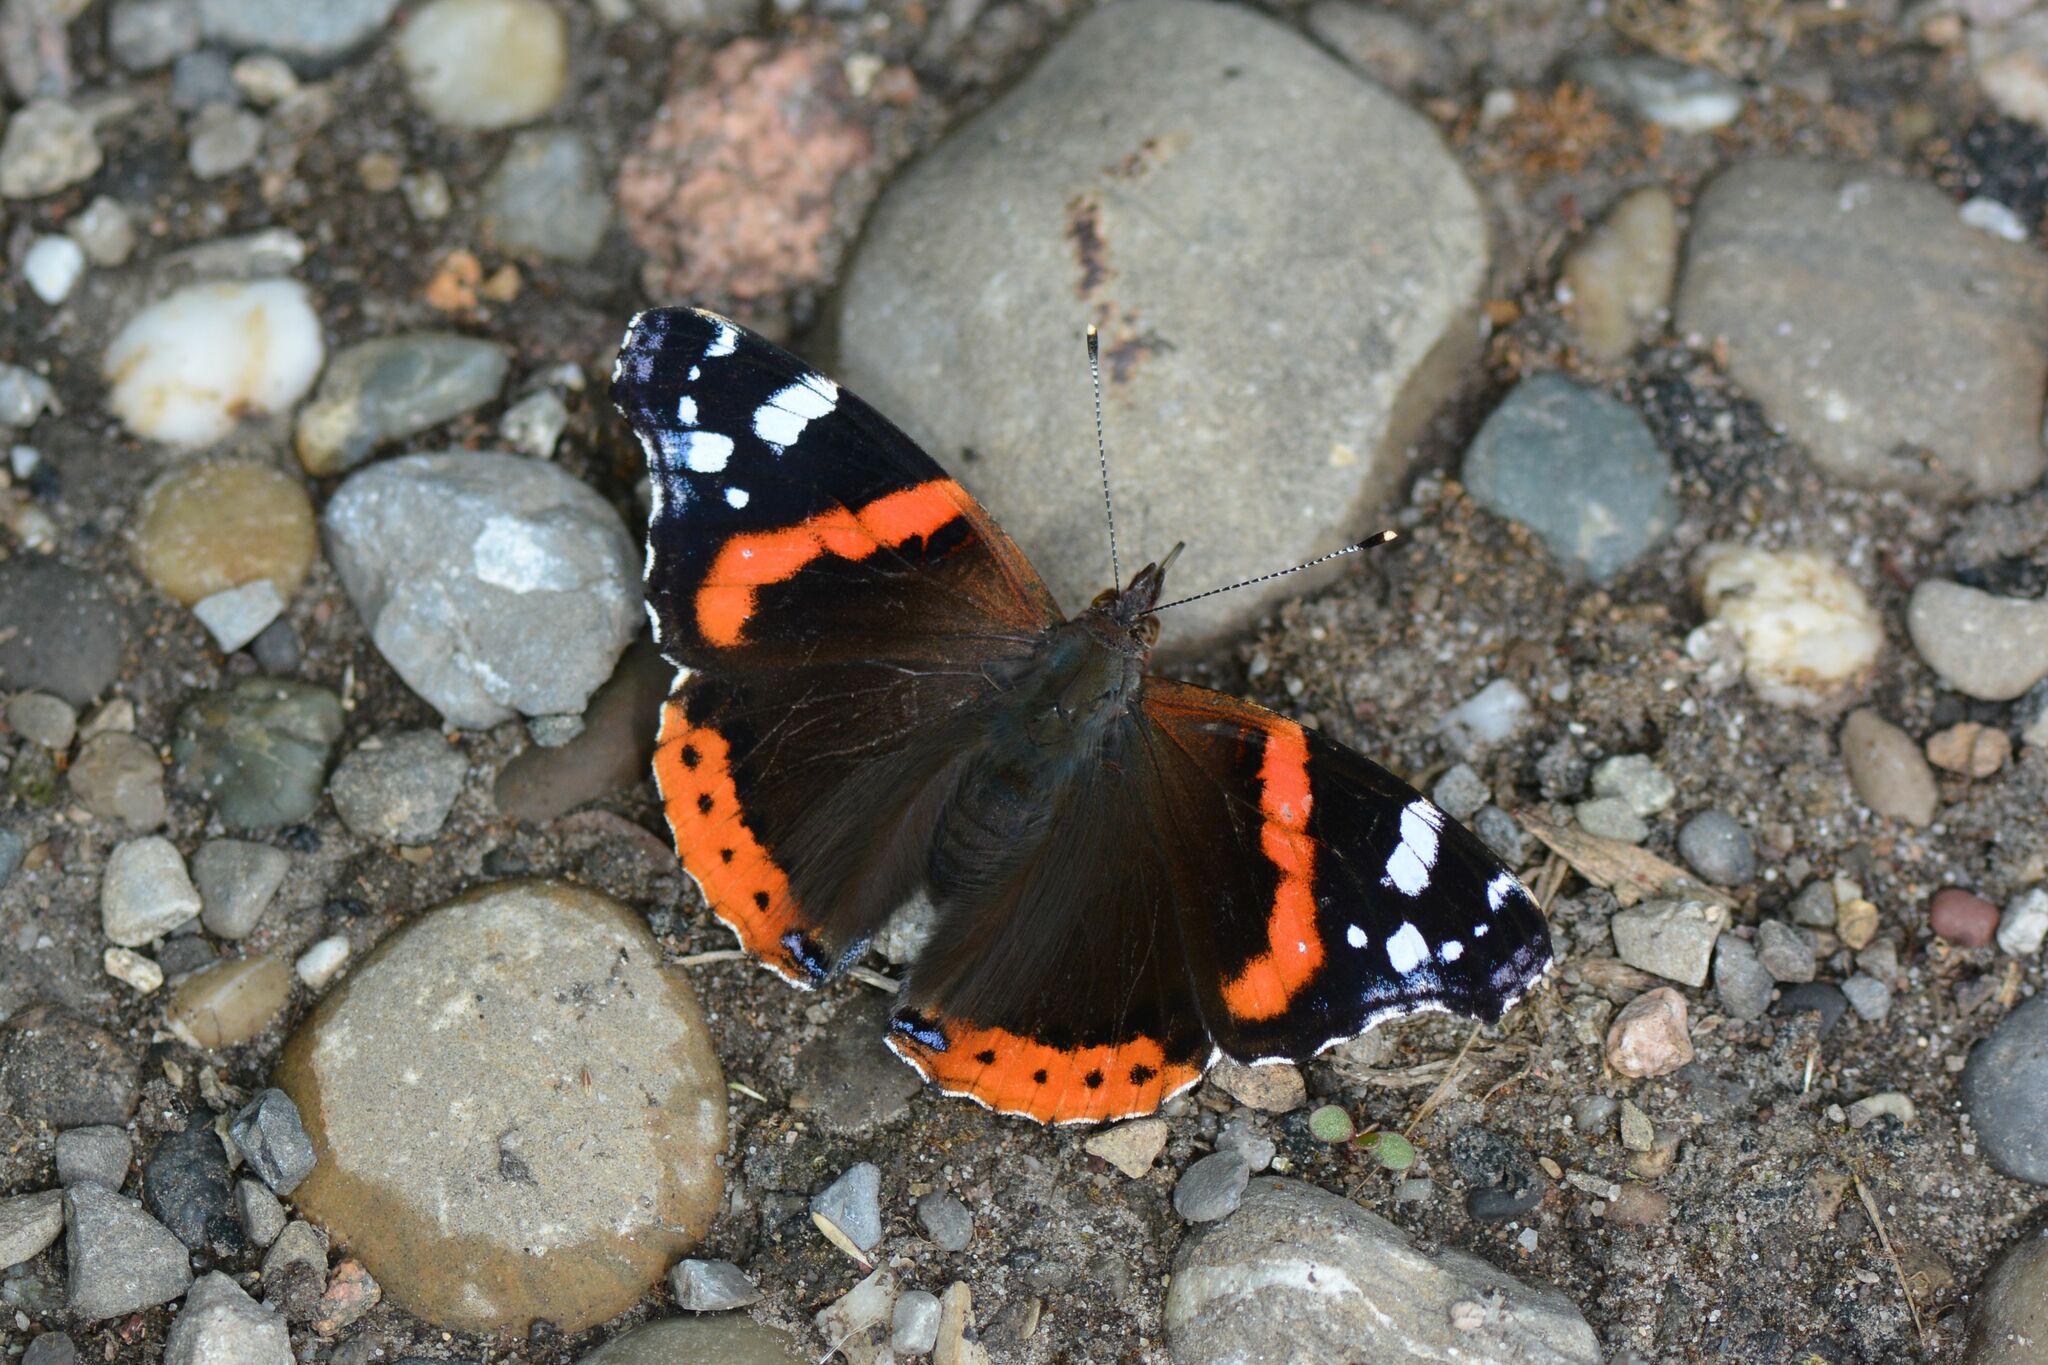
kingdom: Animalia
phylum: Arthropoda
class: Insecta
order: Lepidoptera
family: Nymphalidae
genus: Vanessa
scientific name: Vanessa atalanta
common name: Red admiral
